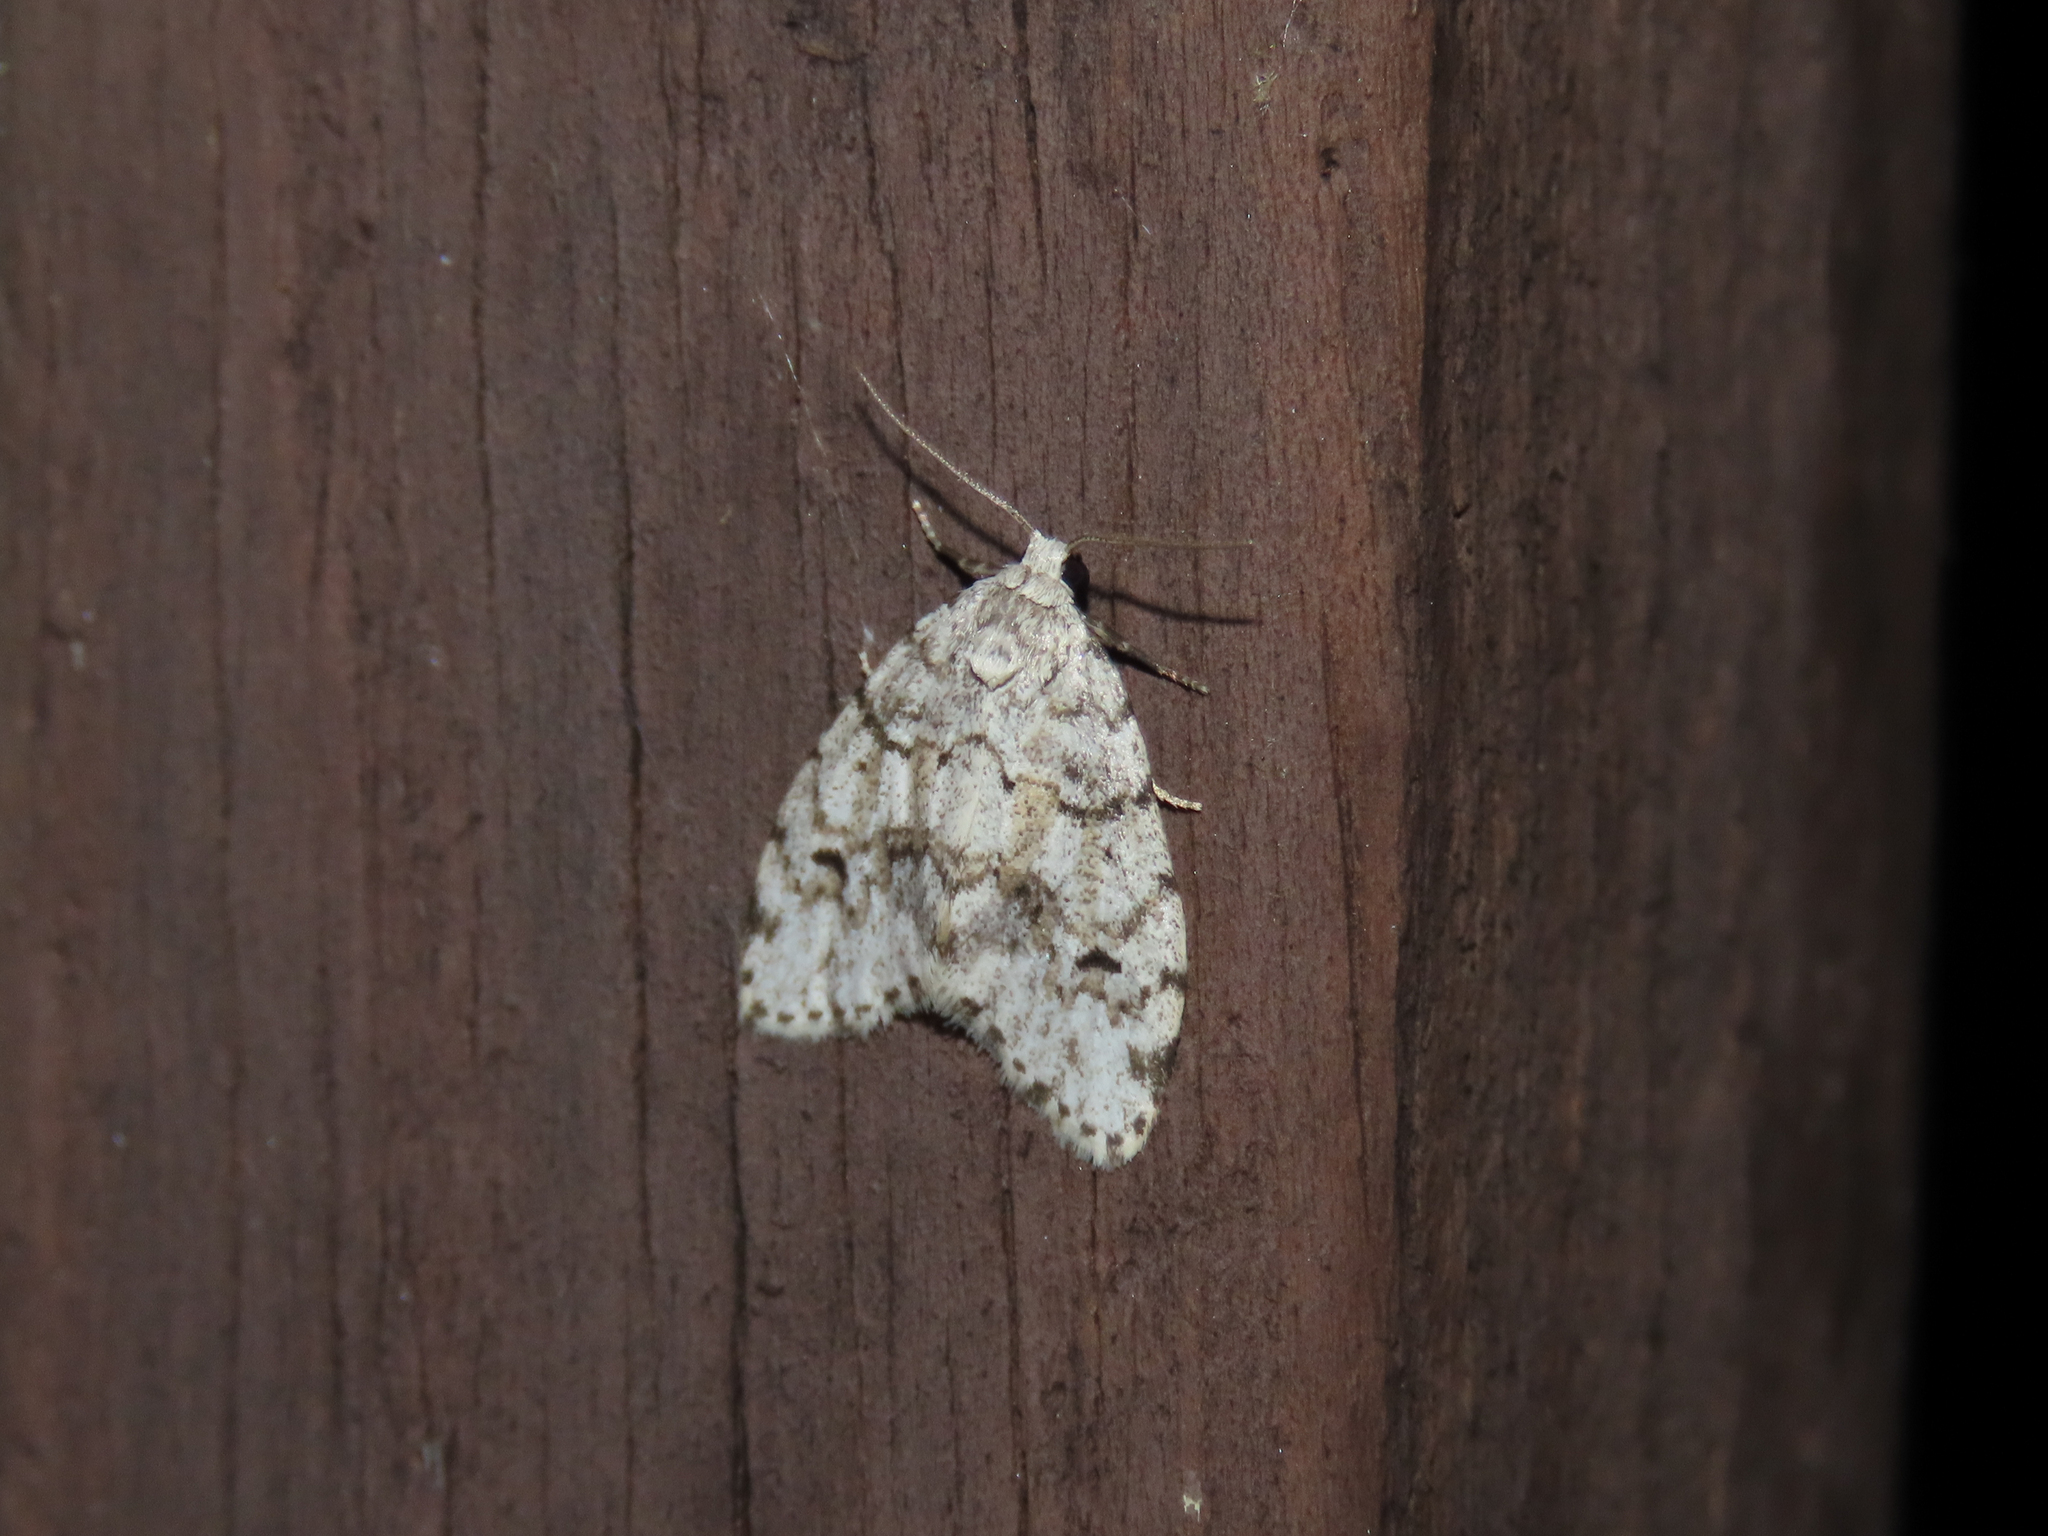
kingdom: Animalia
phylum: Arthropoda
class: Insecta
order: Lepidoptera
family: Erebidae
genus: Clemensia
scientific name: Clemensia albata
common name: Little white lichen moth
